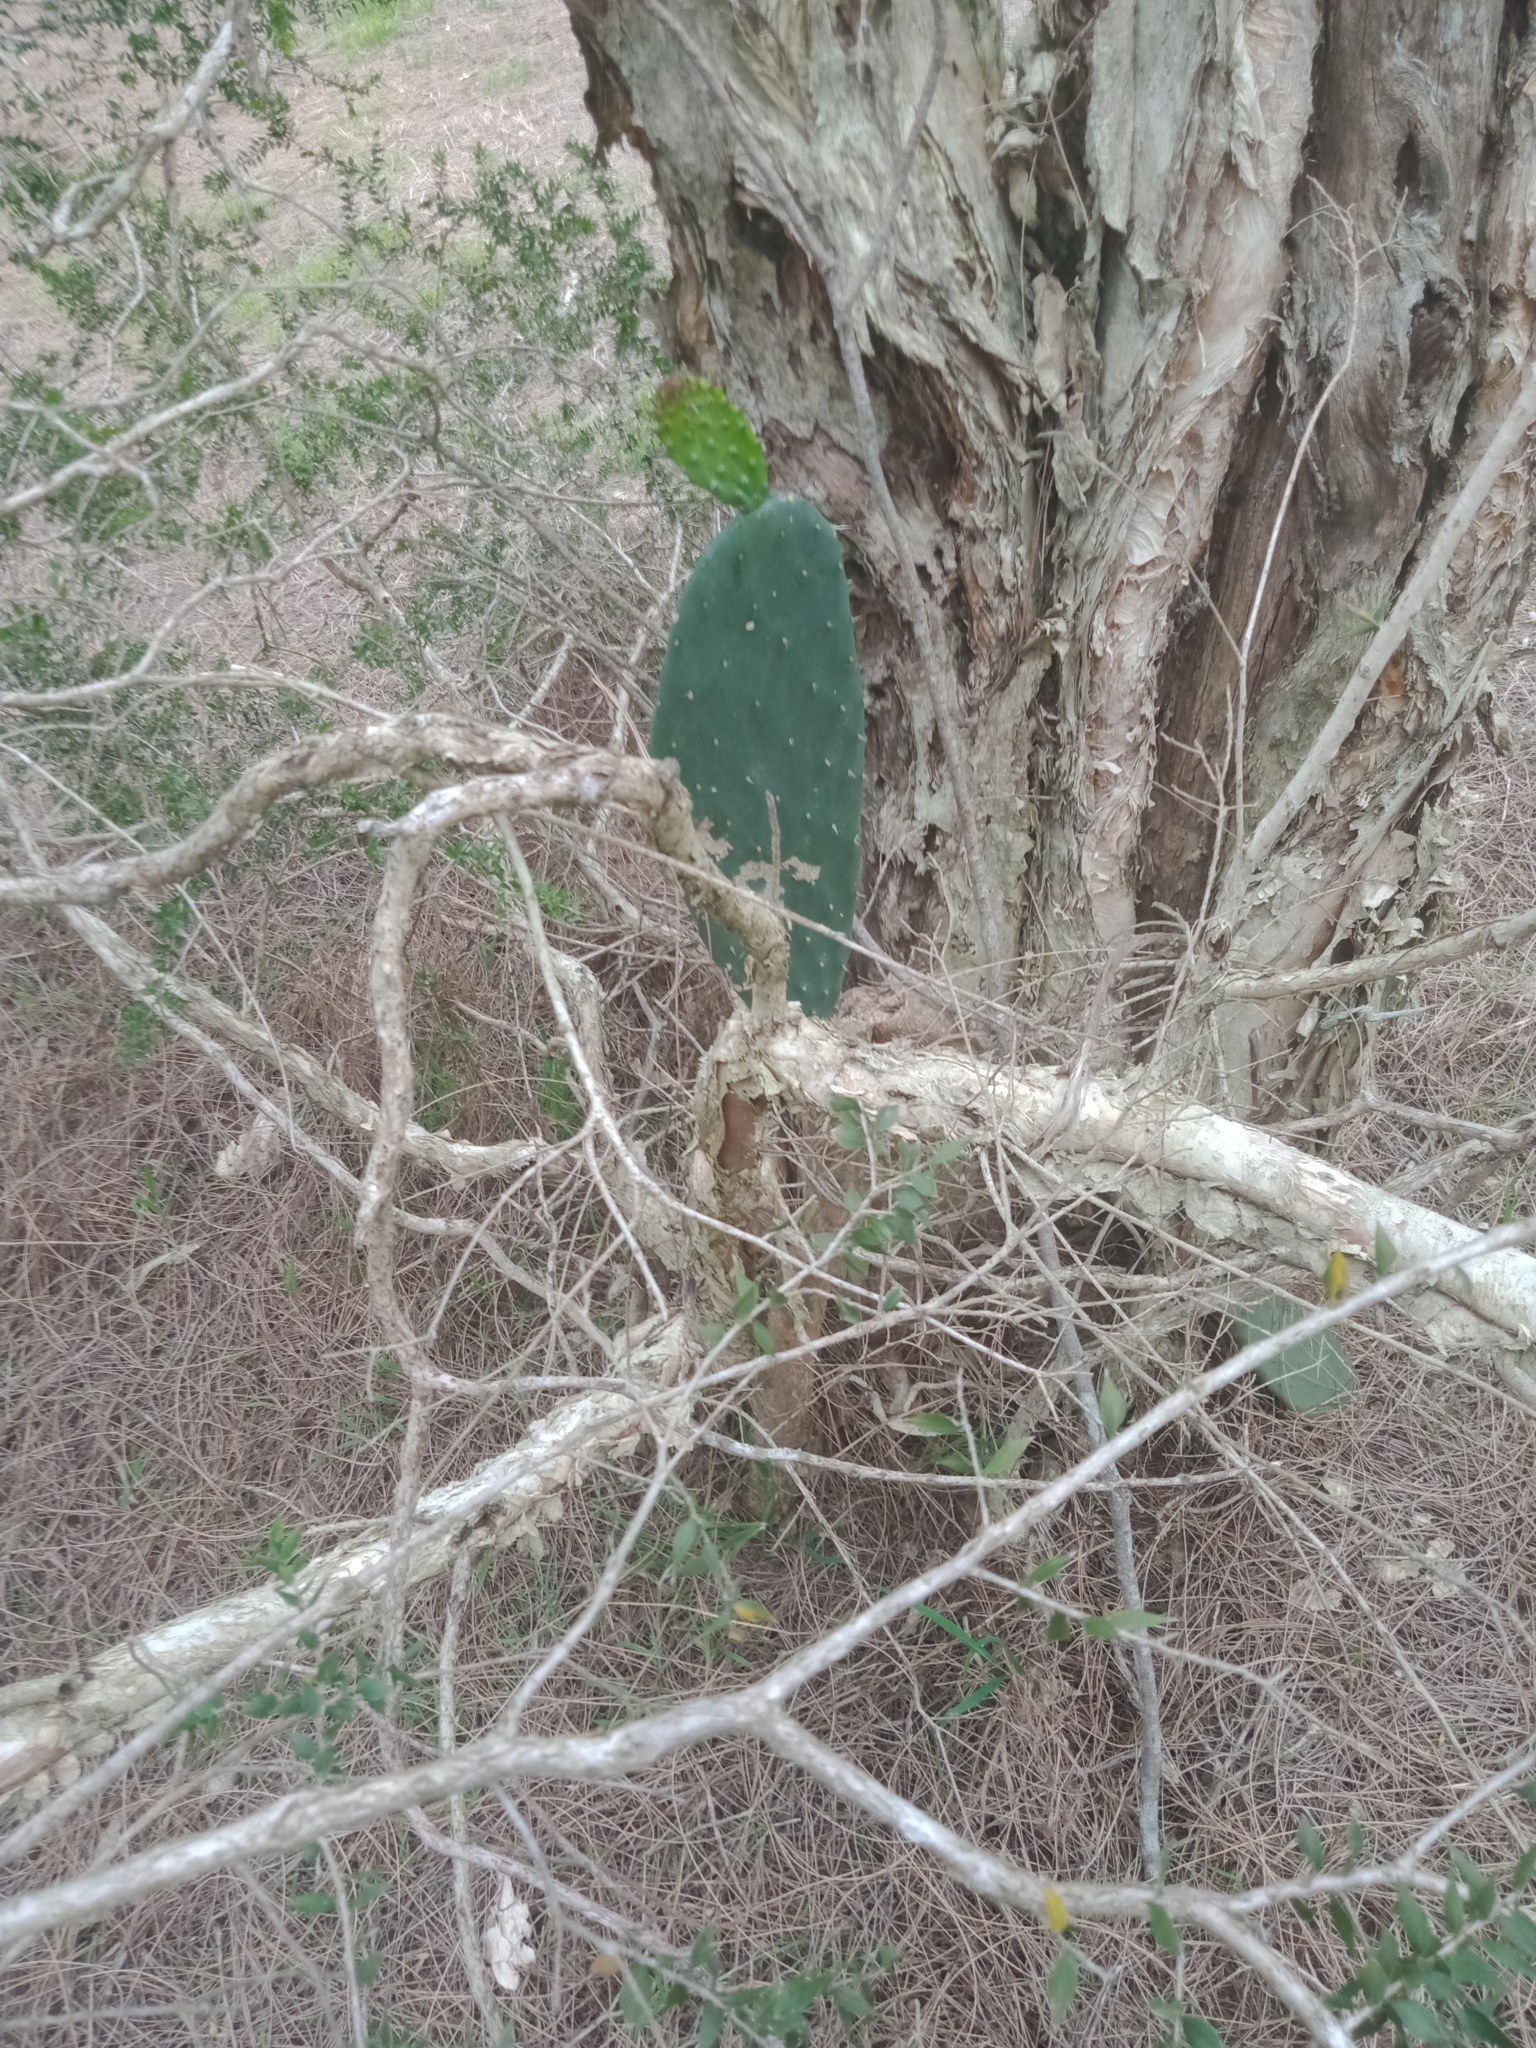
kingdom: Plantae
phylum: Tracheophyta
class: Magnoliopsida
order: Caryophyllales
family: Cactaceae
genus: Opuntia
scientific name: Opuntia ficus-indica
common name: Barbary fig
